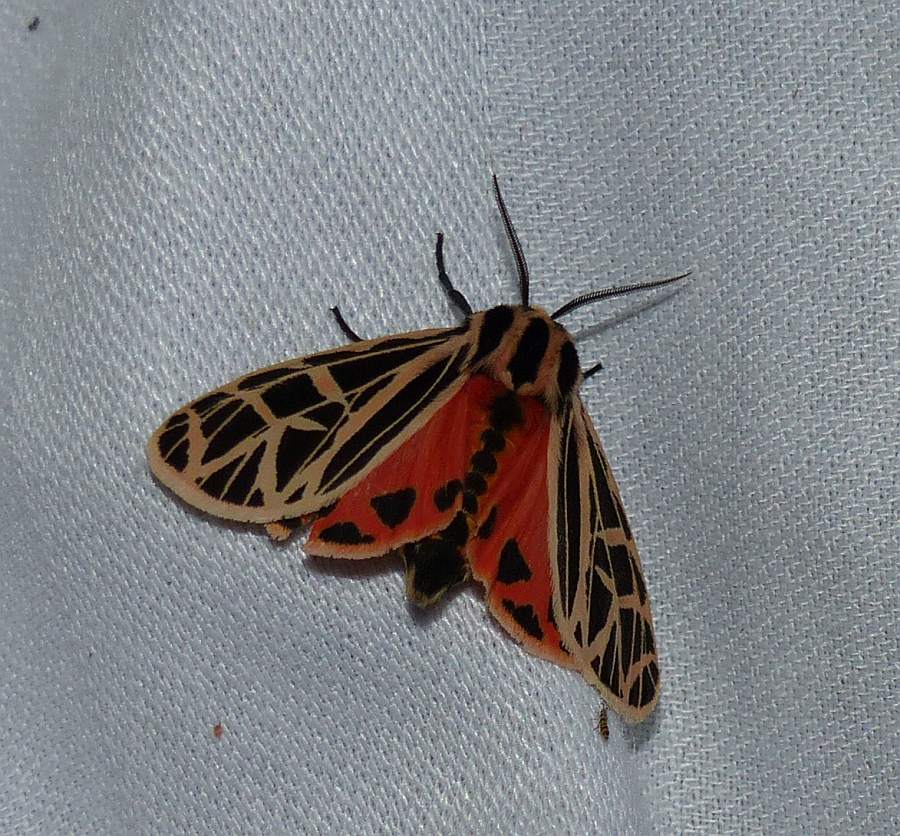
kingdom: Animalia
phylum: Arthropoda
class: Insecta
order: Lepidoptera
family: Erebidae
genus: Grammia
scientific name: Grammia parthenice
